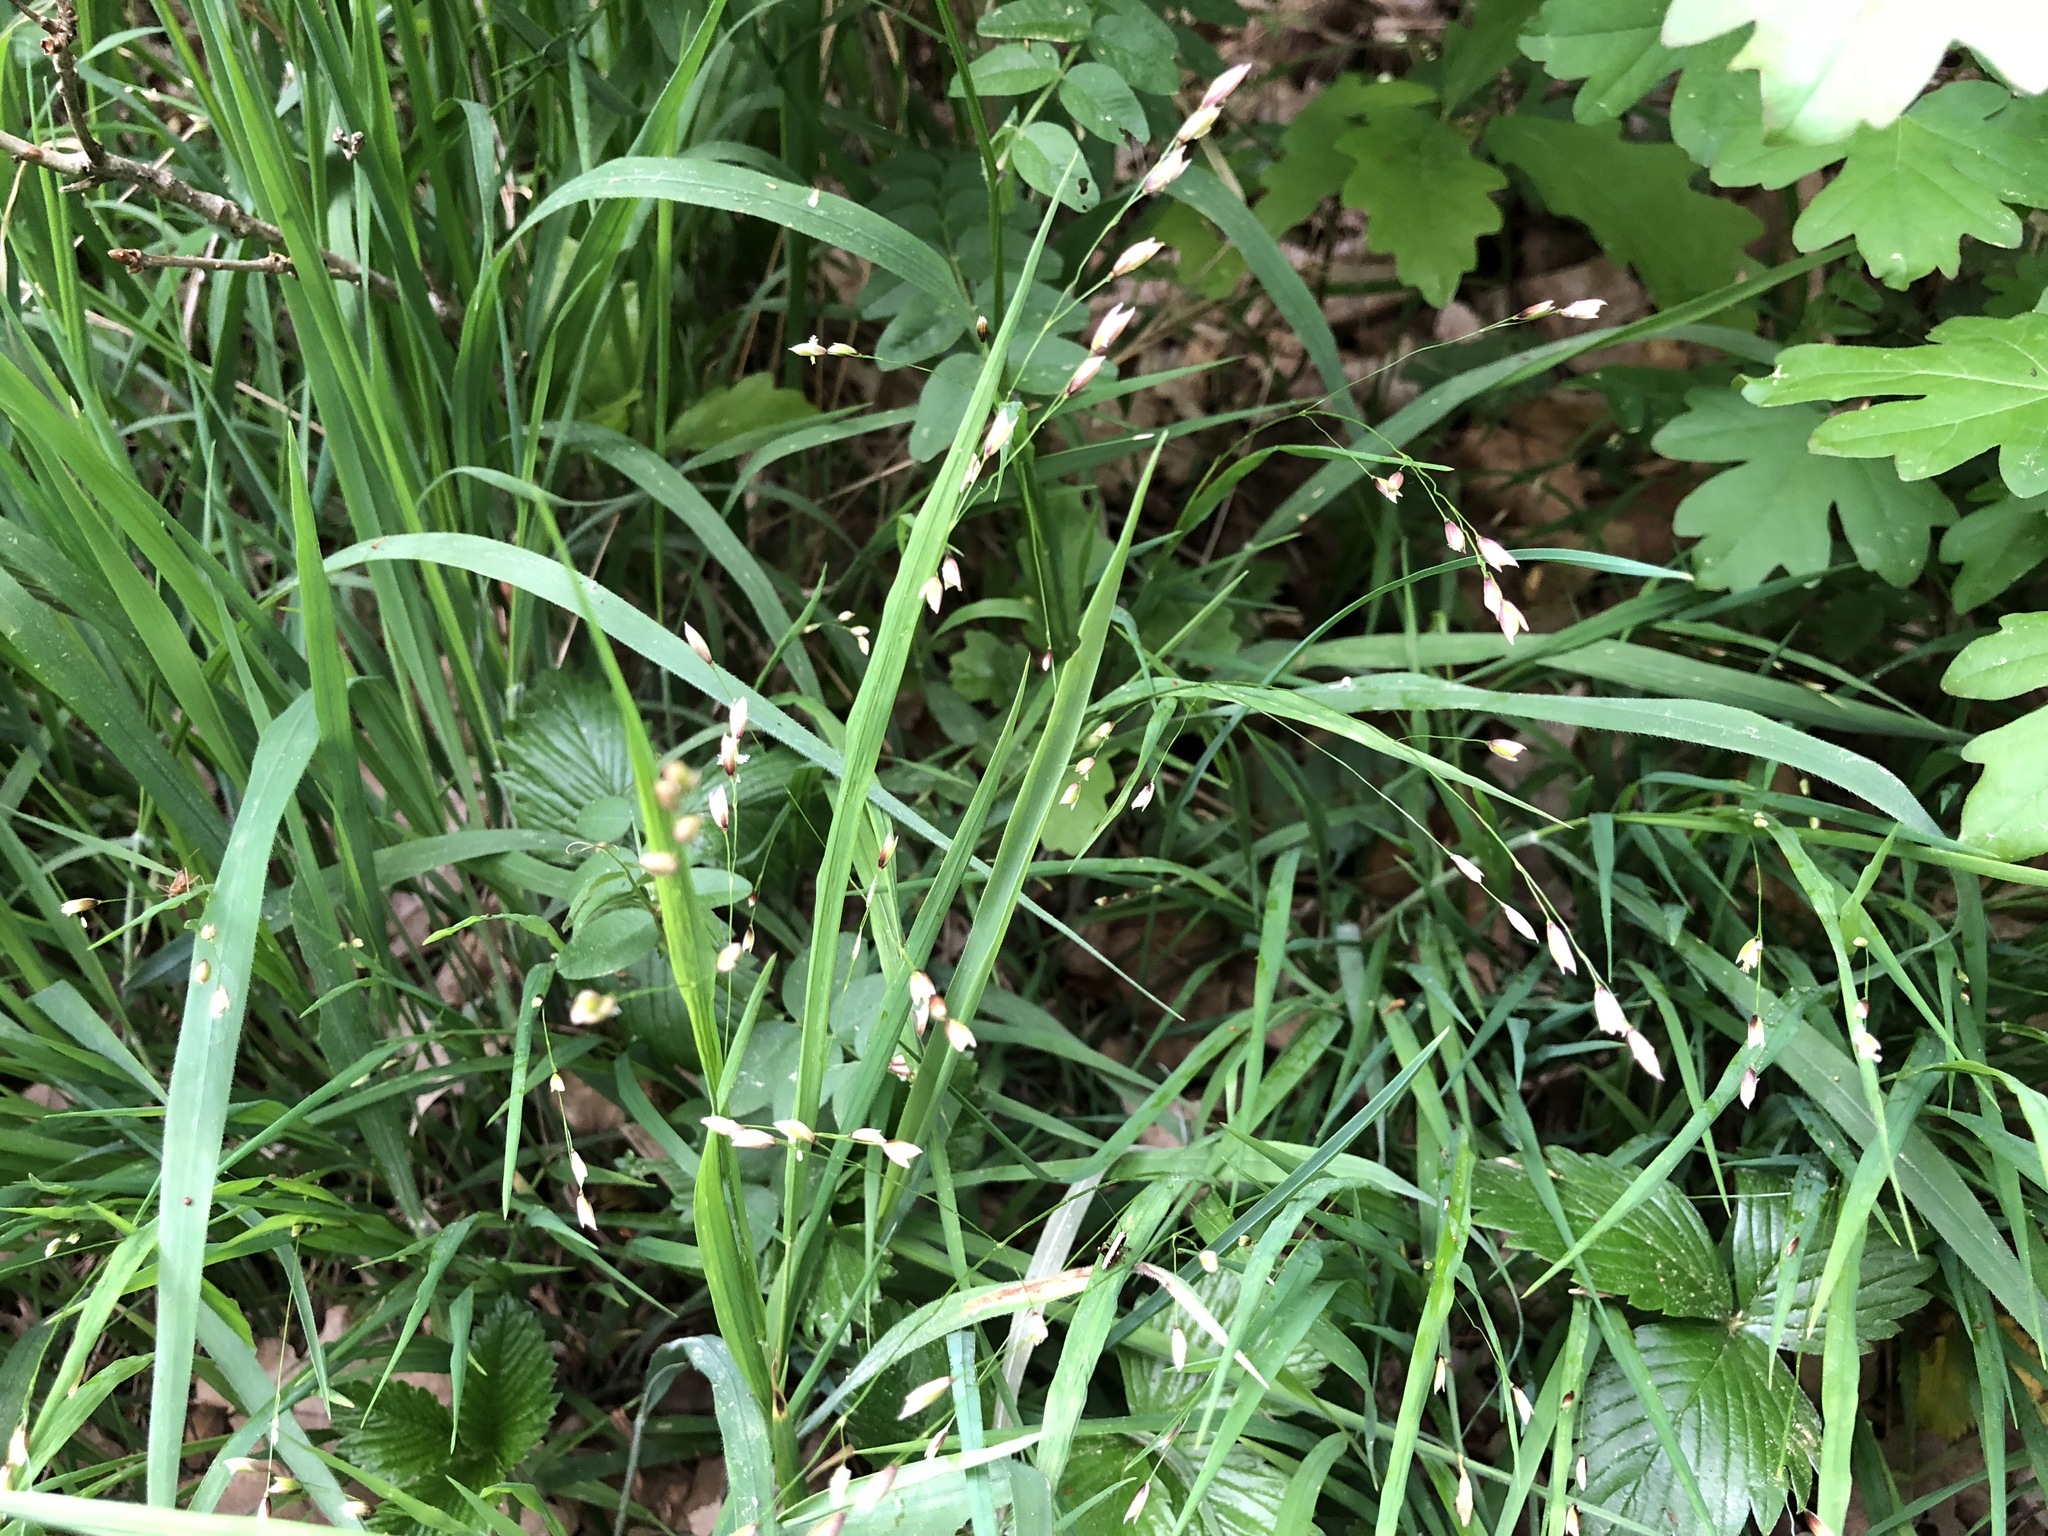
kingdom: Plantae
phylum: Tracheophyta
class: Liliopsida
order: Poales
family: Poaceae
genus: Melica
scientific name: Melica uniflora
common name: Wood melick
